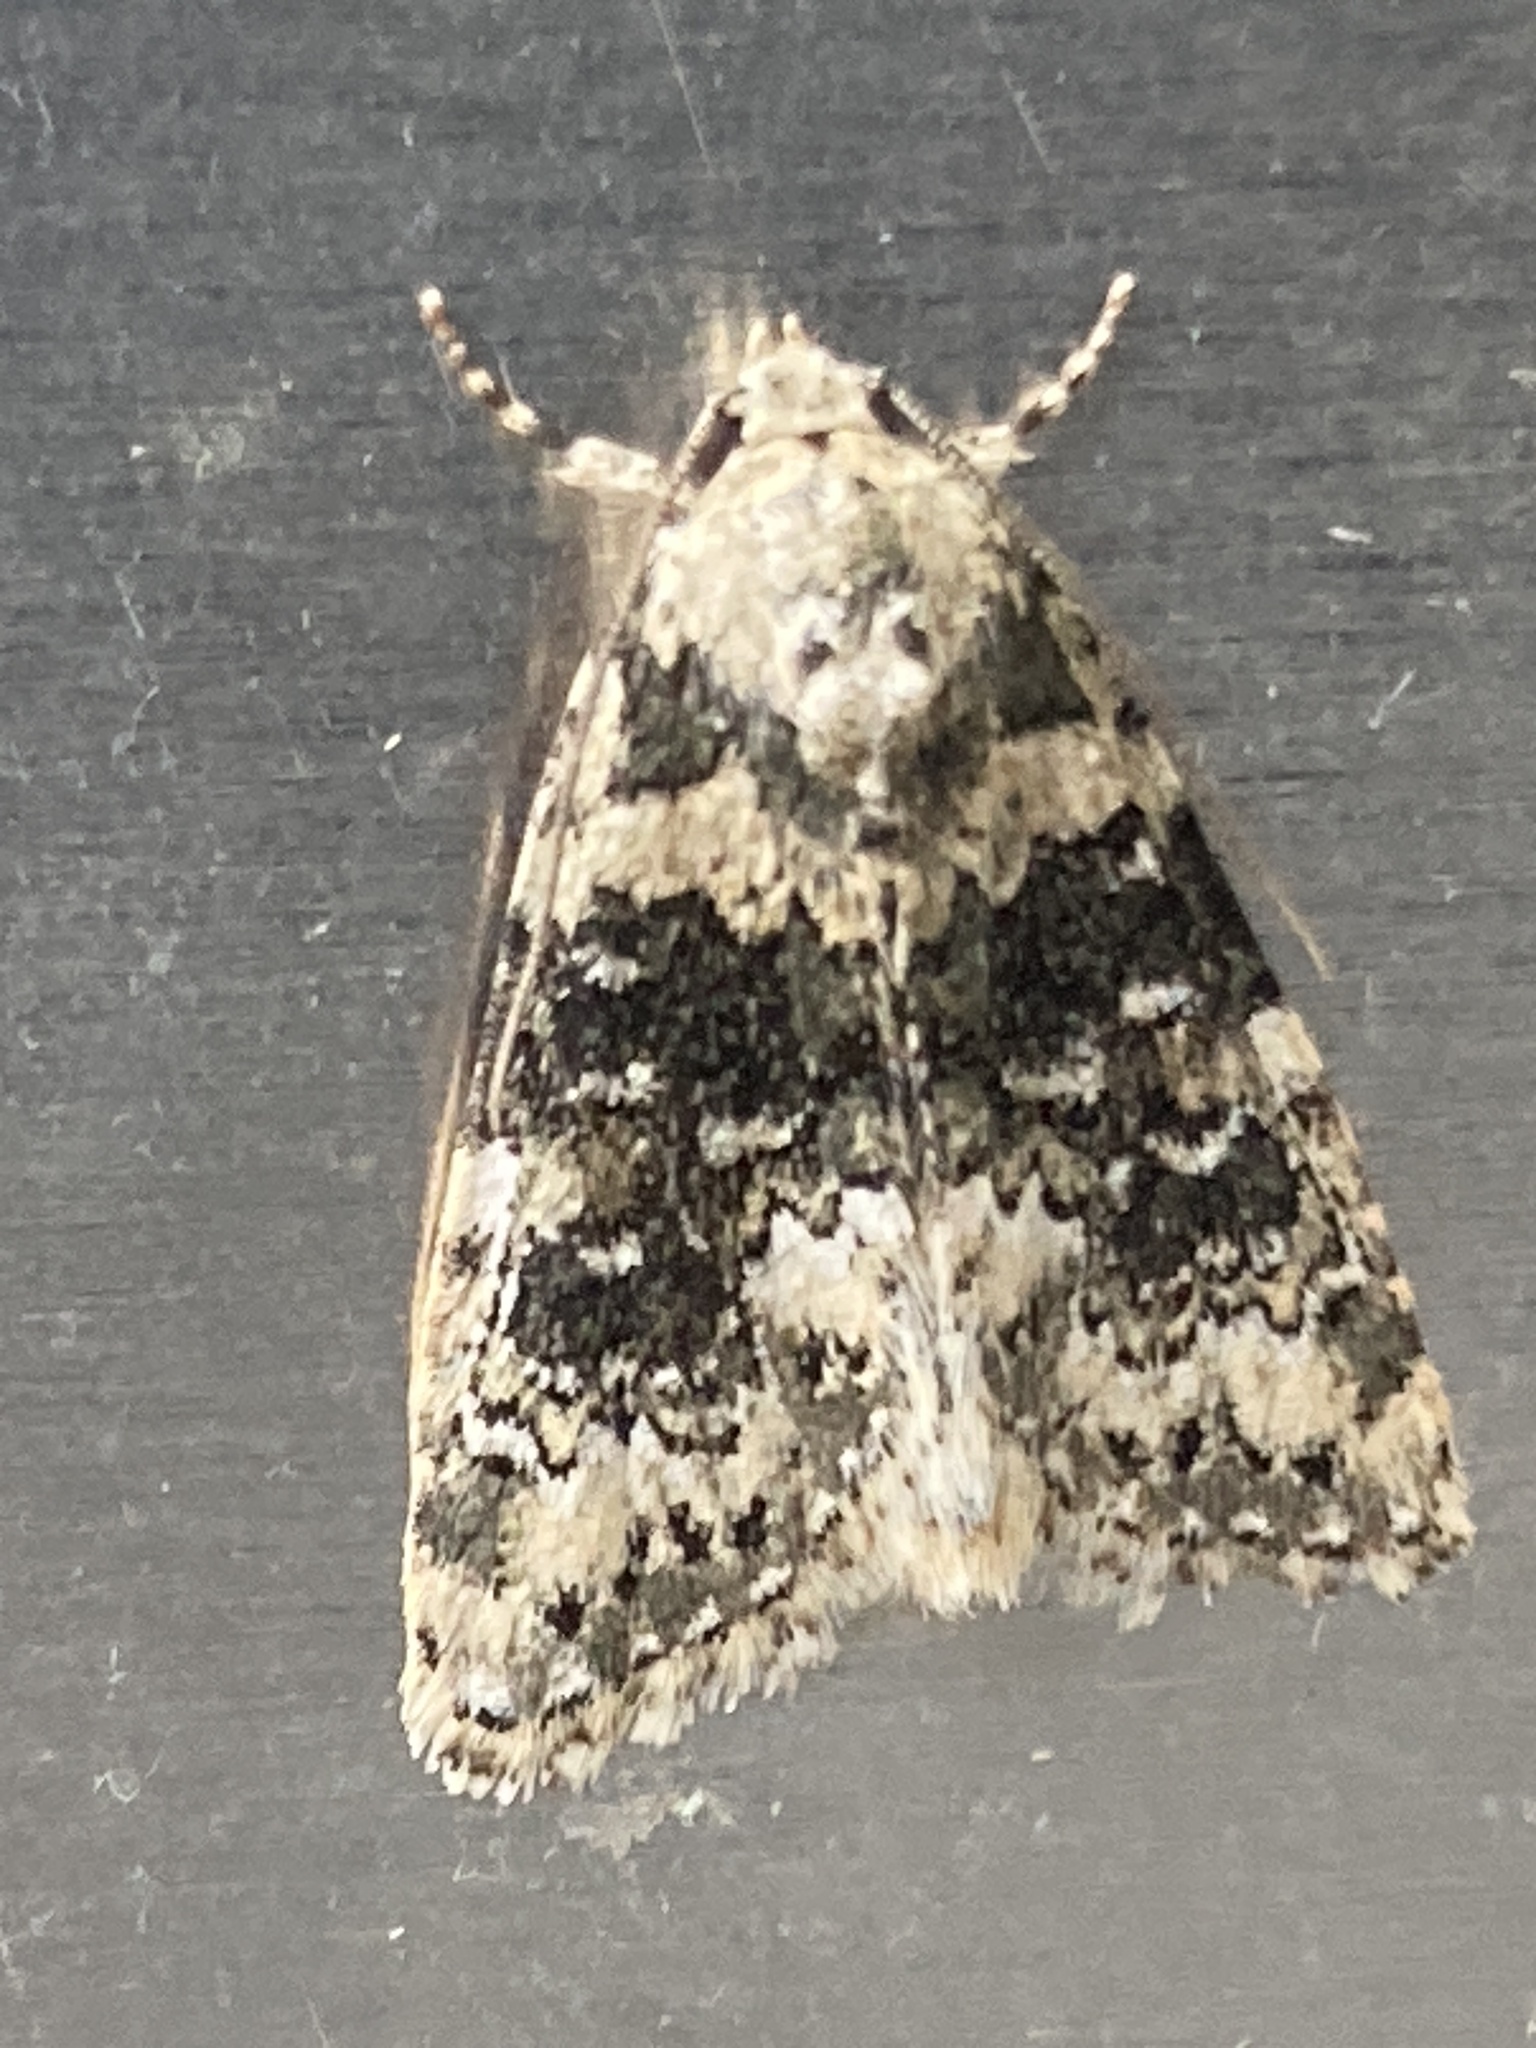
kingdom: Animalia
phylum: Arthropoda
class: Insecta
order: Lepidoptera
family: Noctuidae
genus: Bryophila
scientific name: Bryophila domestica
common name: Marbled beauty
